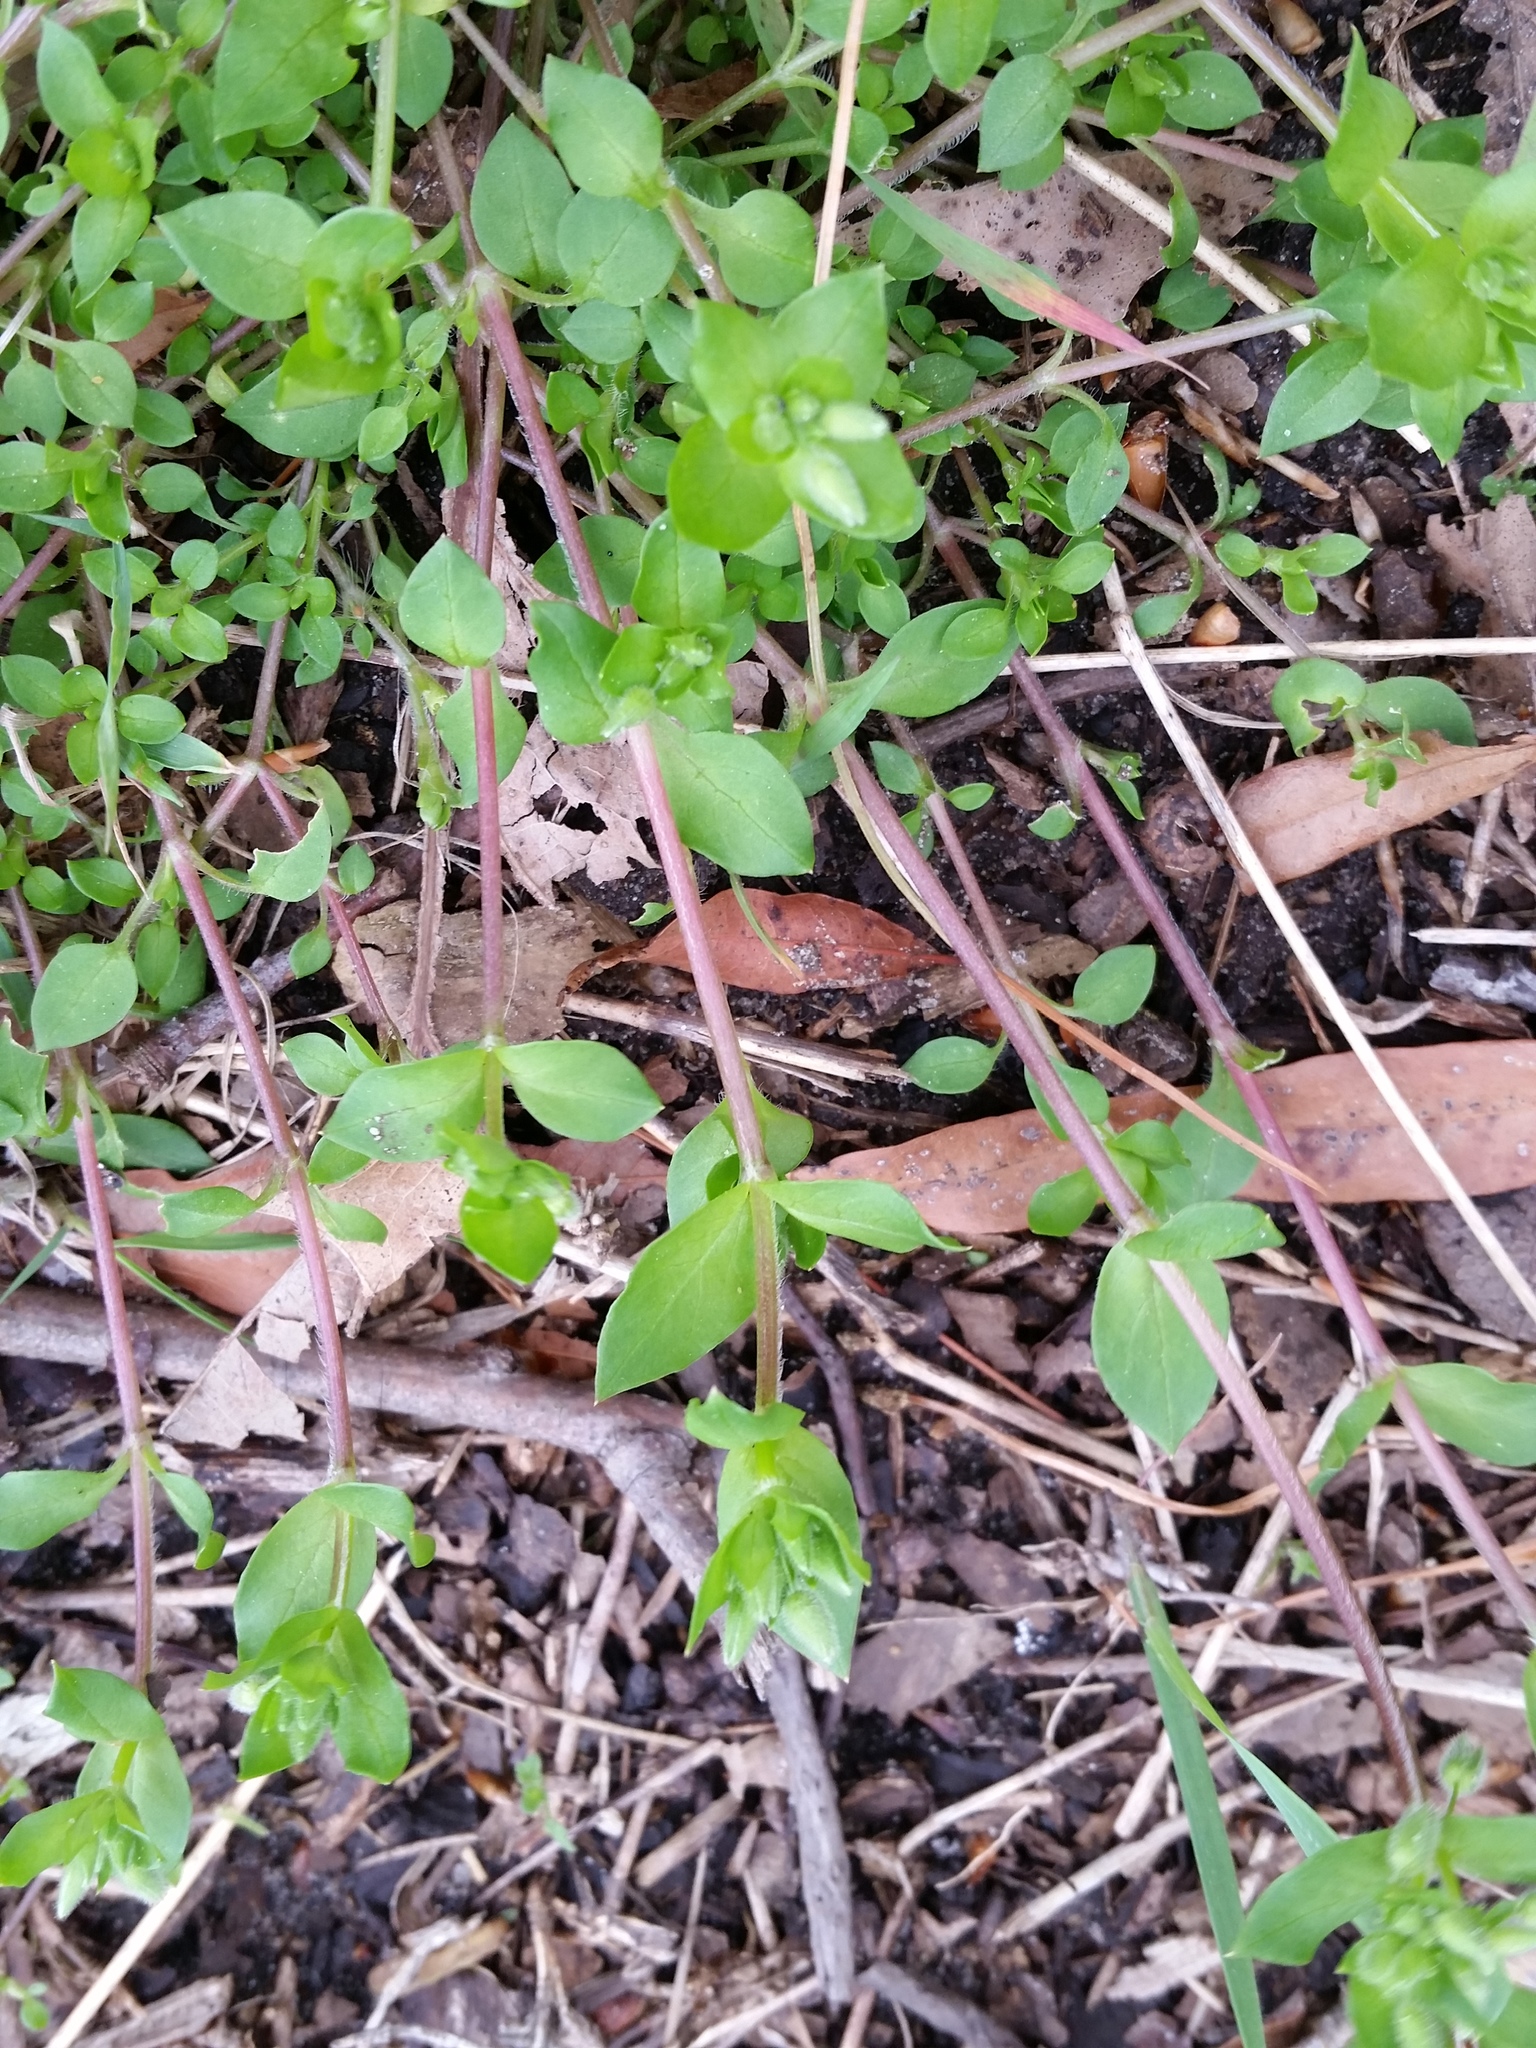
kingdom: Plantae
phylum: Tracheophyta
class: Magnoliopsida
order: Caryophyllales
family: Caryophyllaceae
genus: Stellaria
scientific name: Stellaria media
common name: Common chickweed
